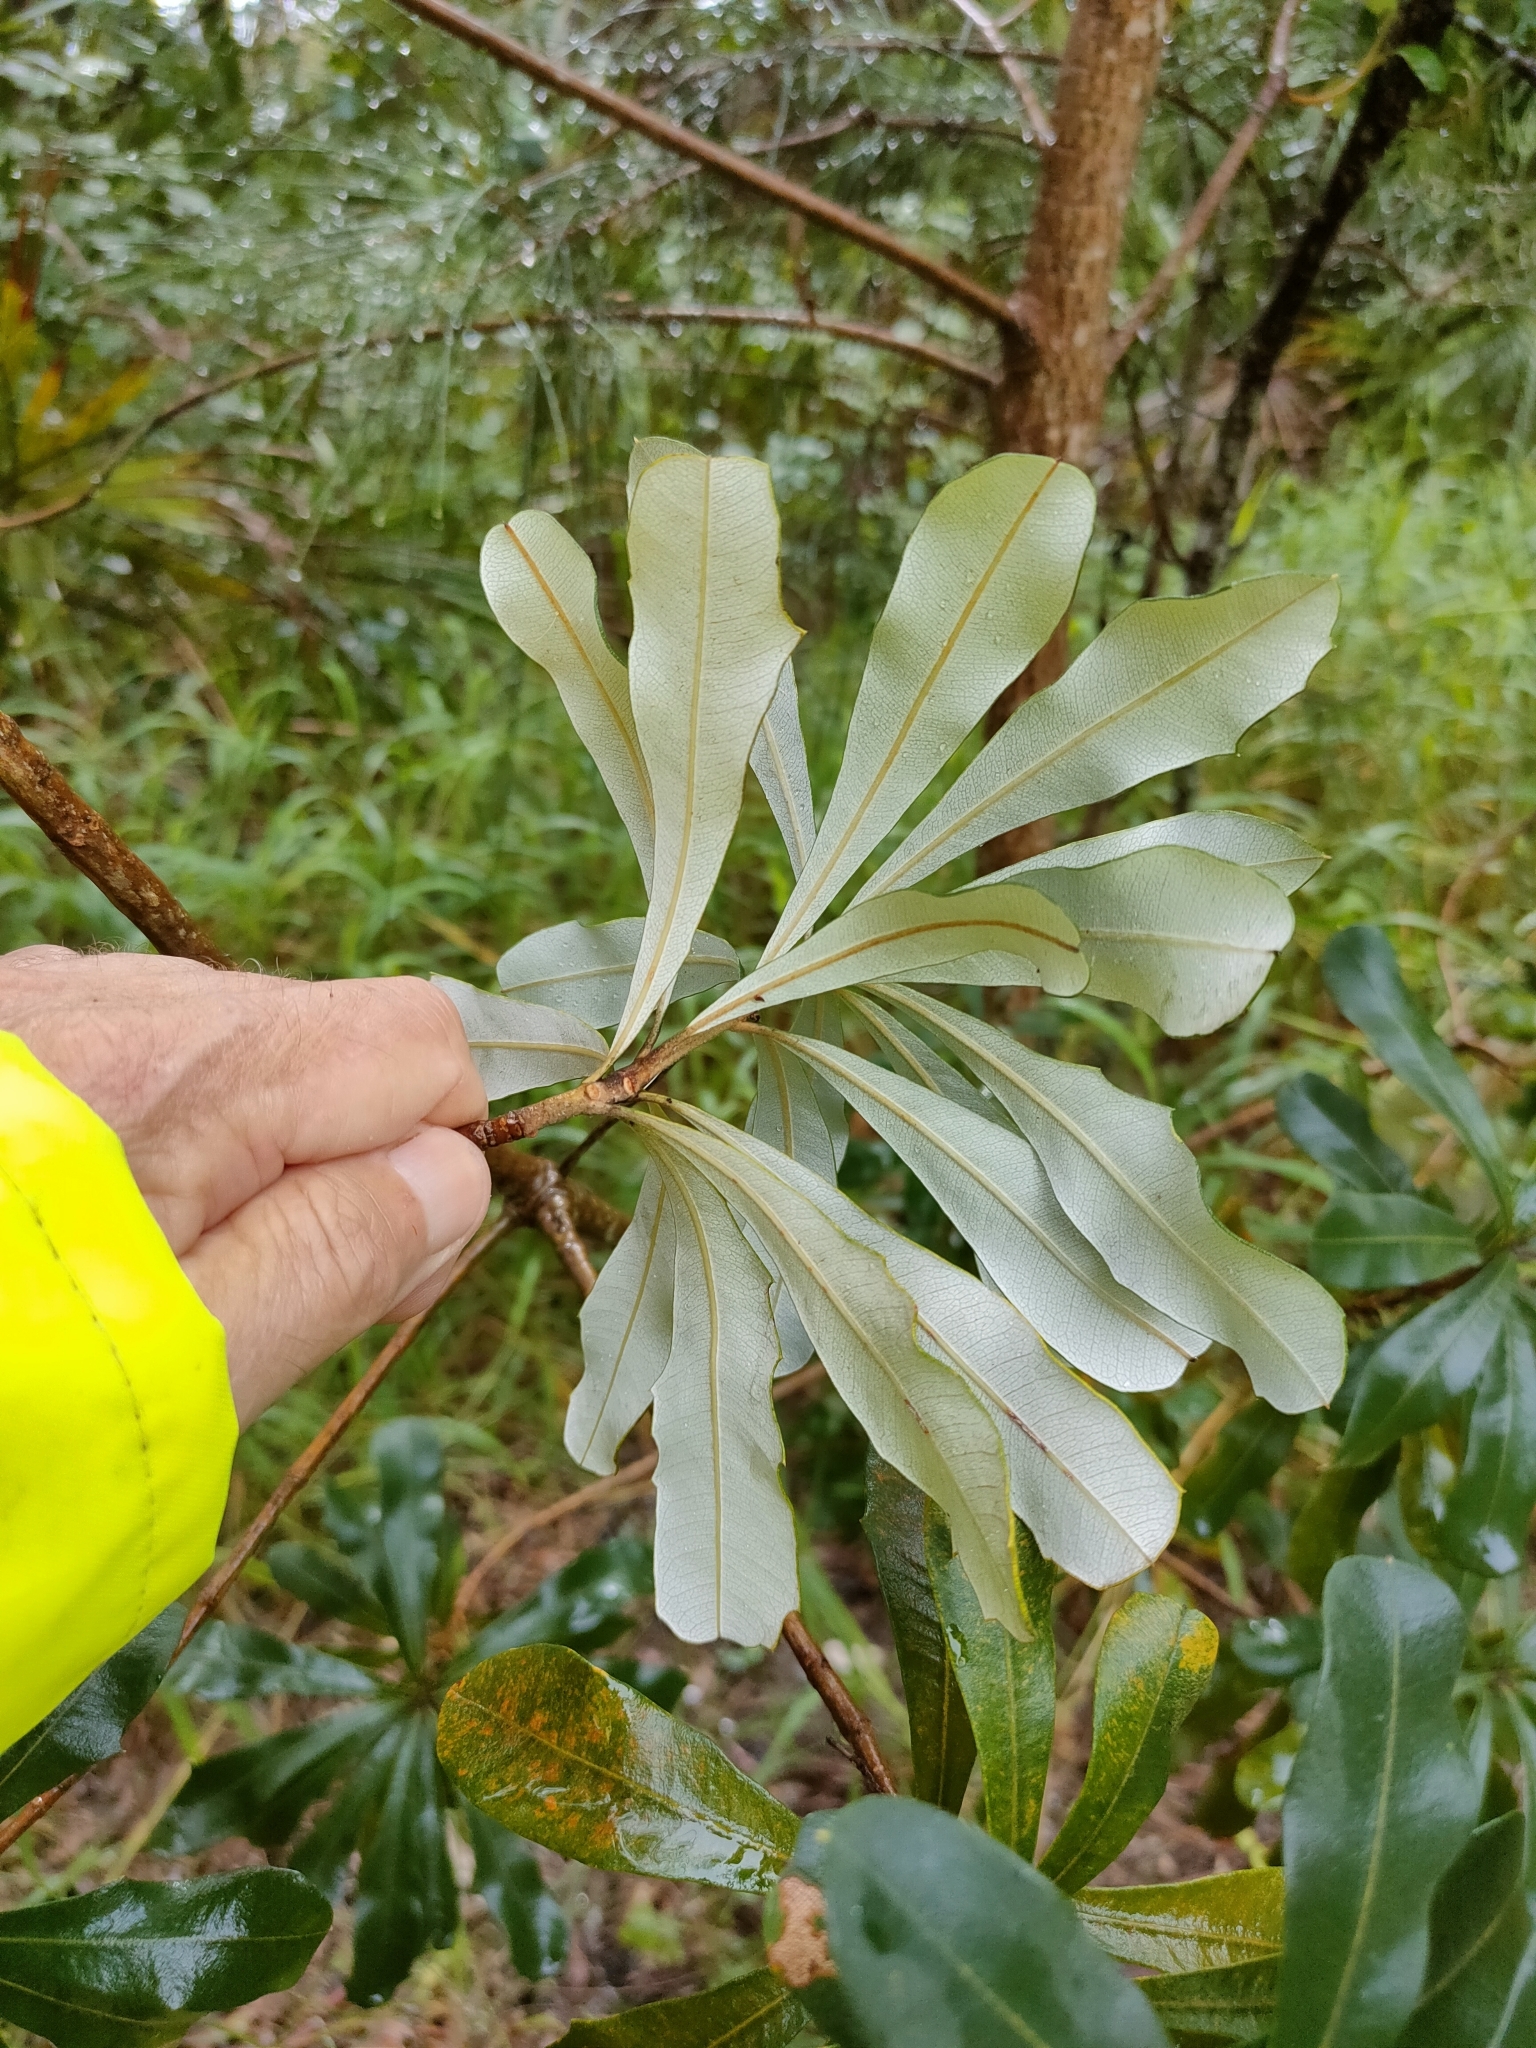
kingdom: Plantae
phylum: Tracheophyta
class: Magnoliopsida
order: Proteales
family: Proteaceae
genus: Banksia
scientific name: Banksia integrifolia
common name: White-honeysuckle
